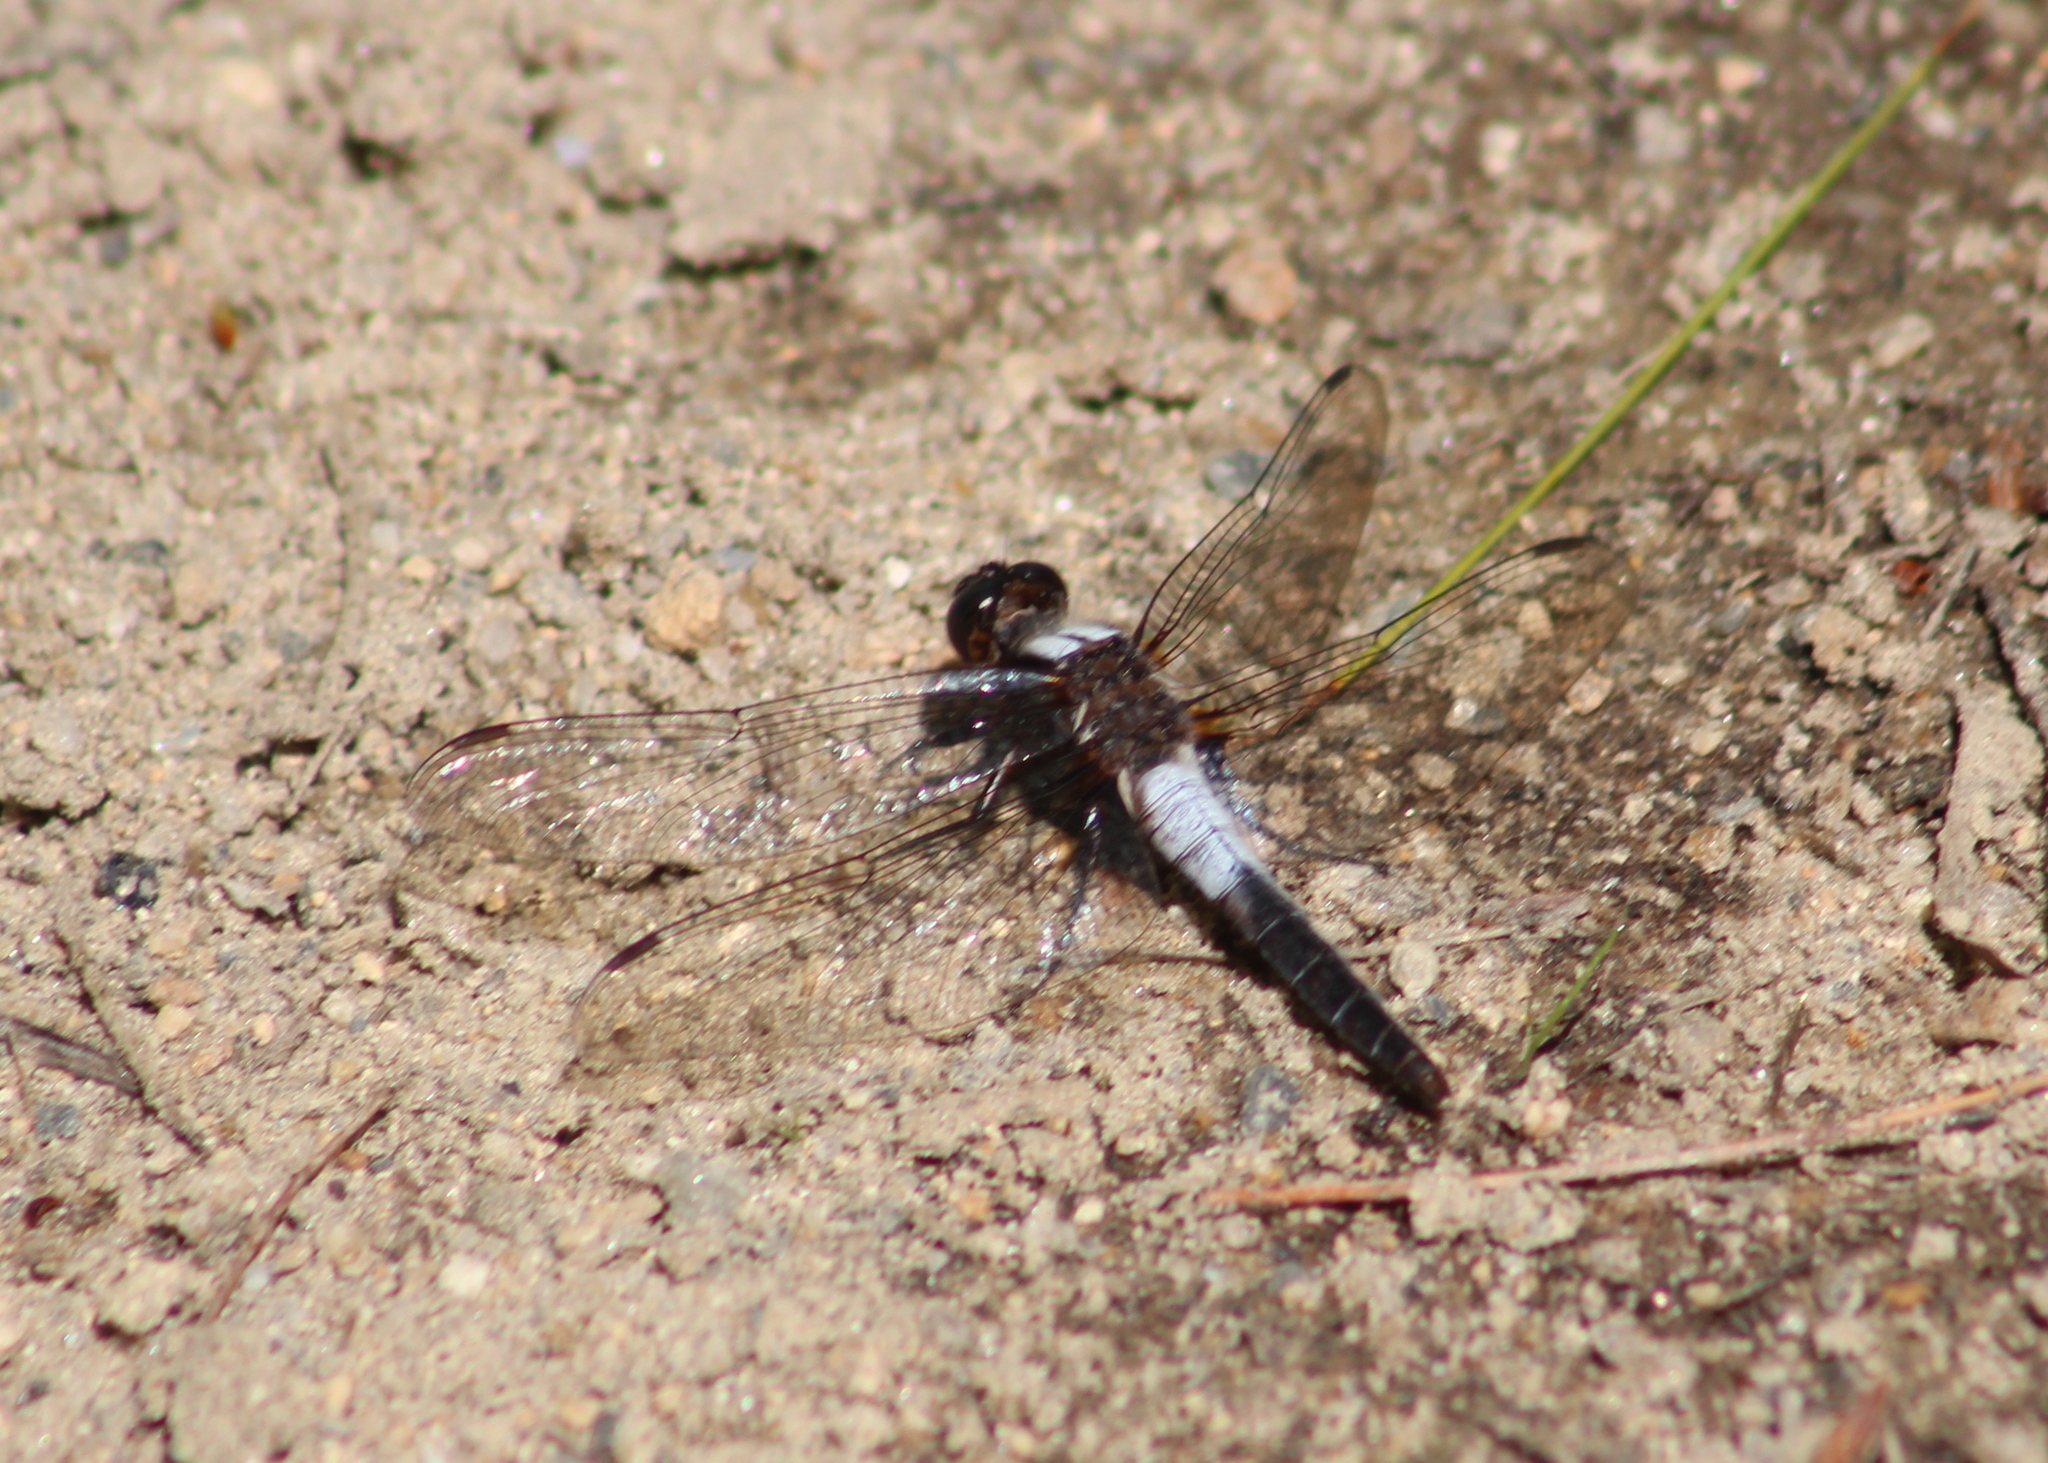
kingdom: Animalia
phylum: Arthropoda
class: Insecta
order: Odonata
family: Libellulidae
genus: Ladona
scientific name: Ladona julia
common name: Chalk-fronted corporal
